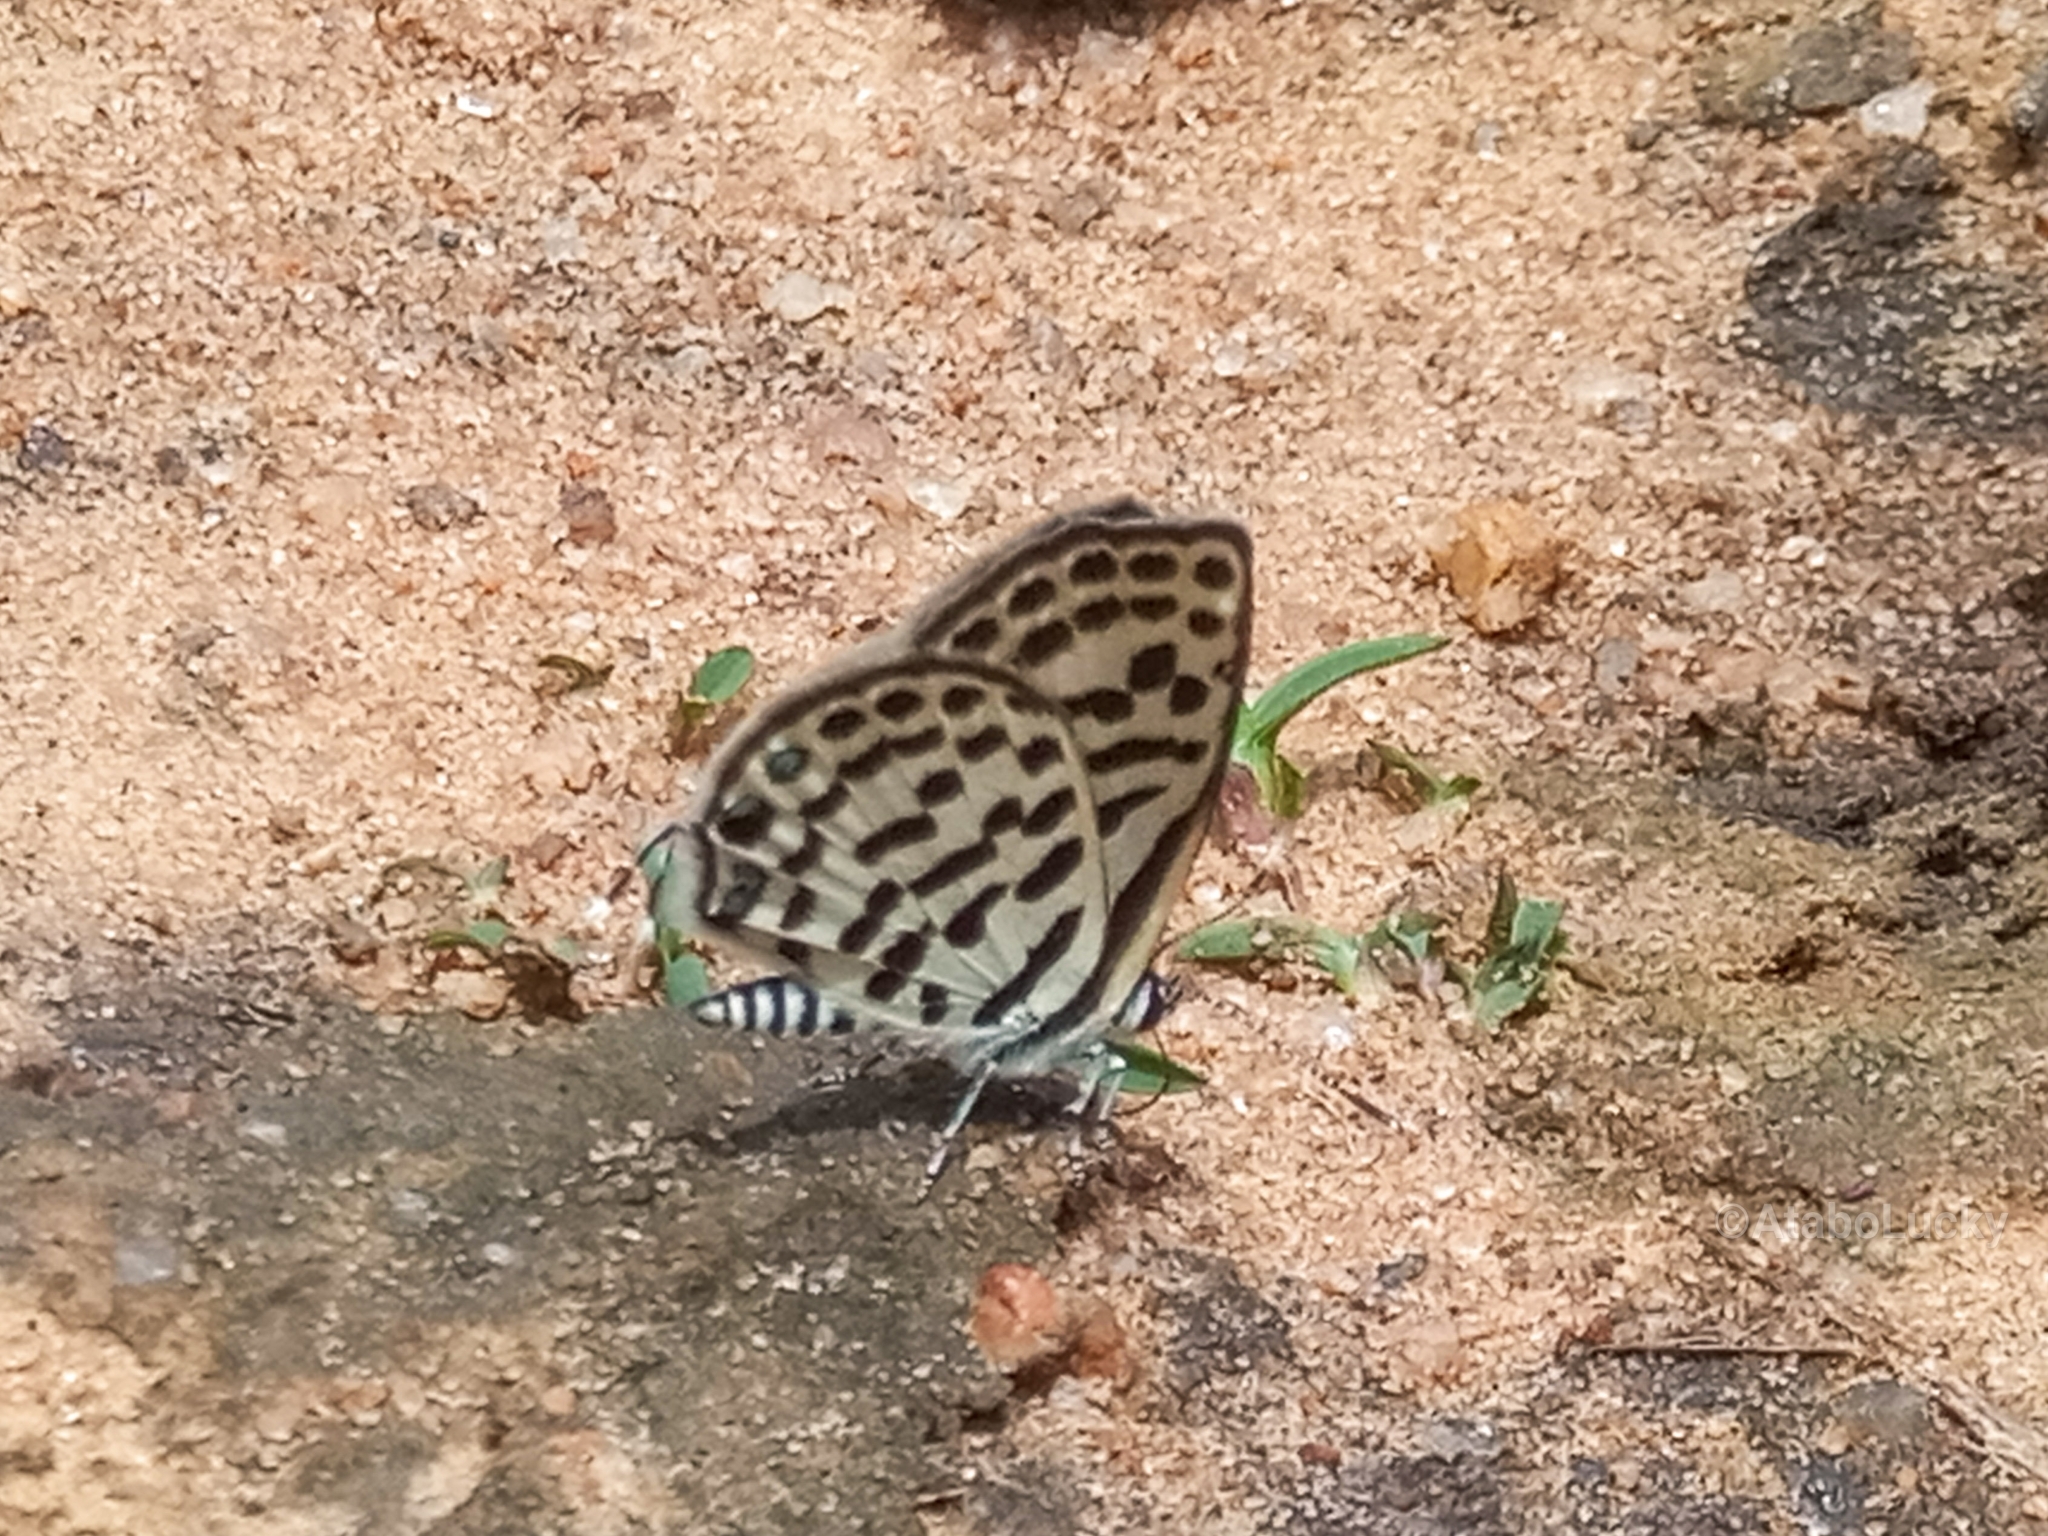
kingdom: Animalia
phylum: Arthropoda
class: Insecta
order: Lepidoptera
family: Lycaenidae
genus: Tarucus
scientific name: Tarucus theophrastus
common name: Common tiger blue
